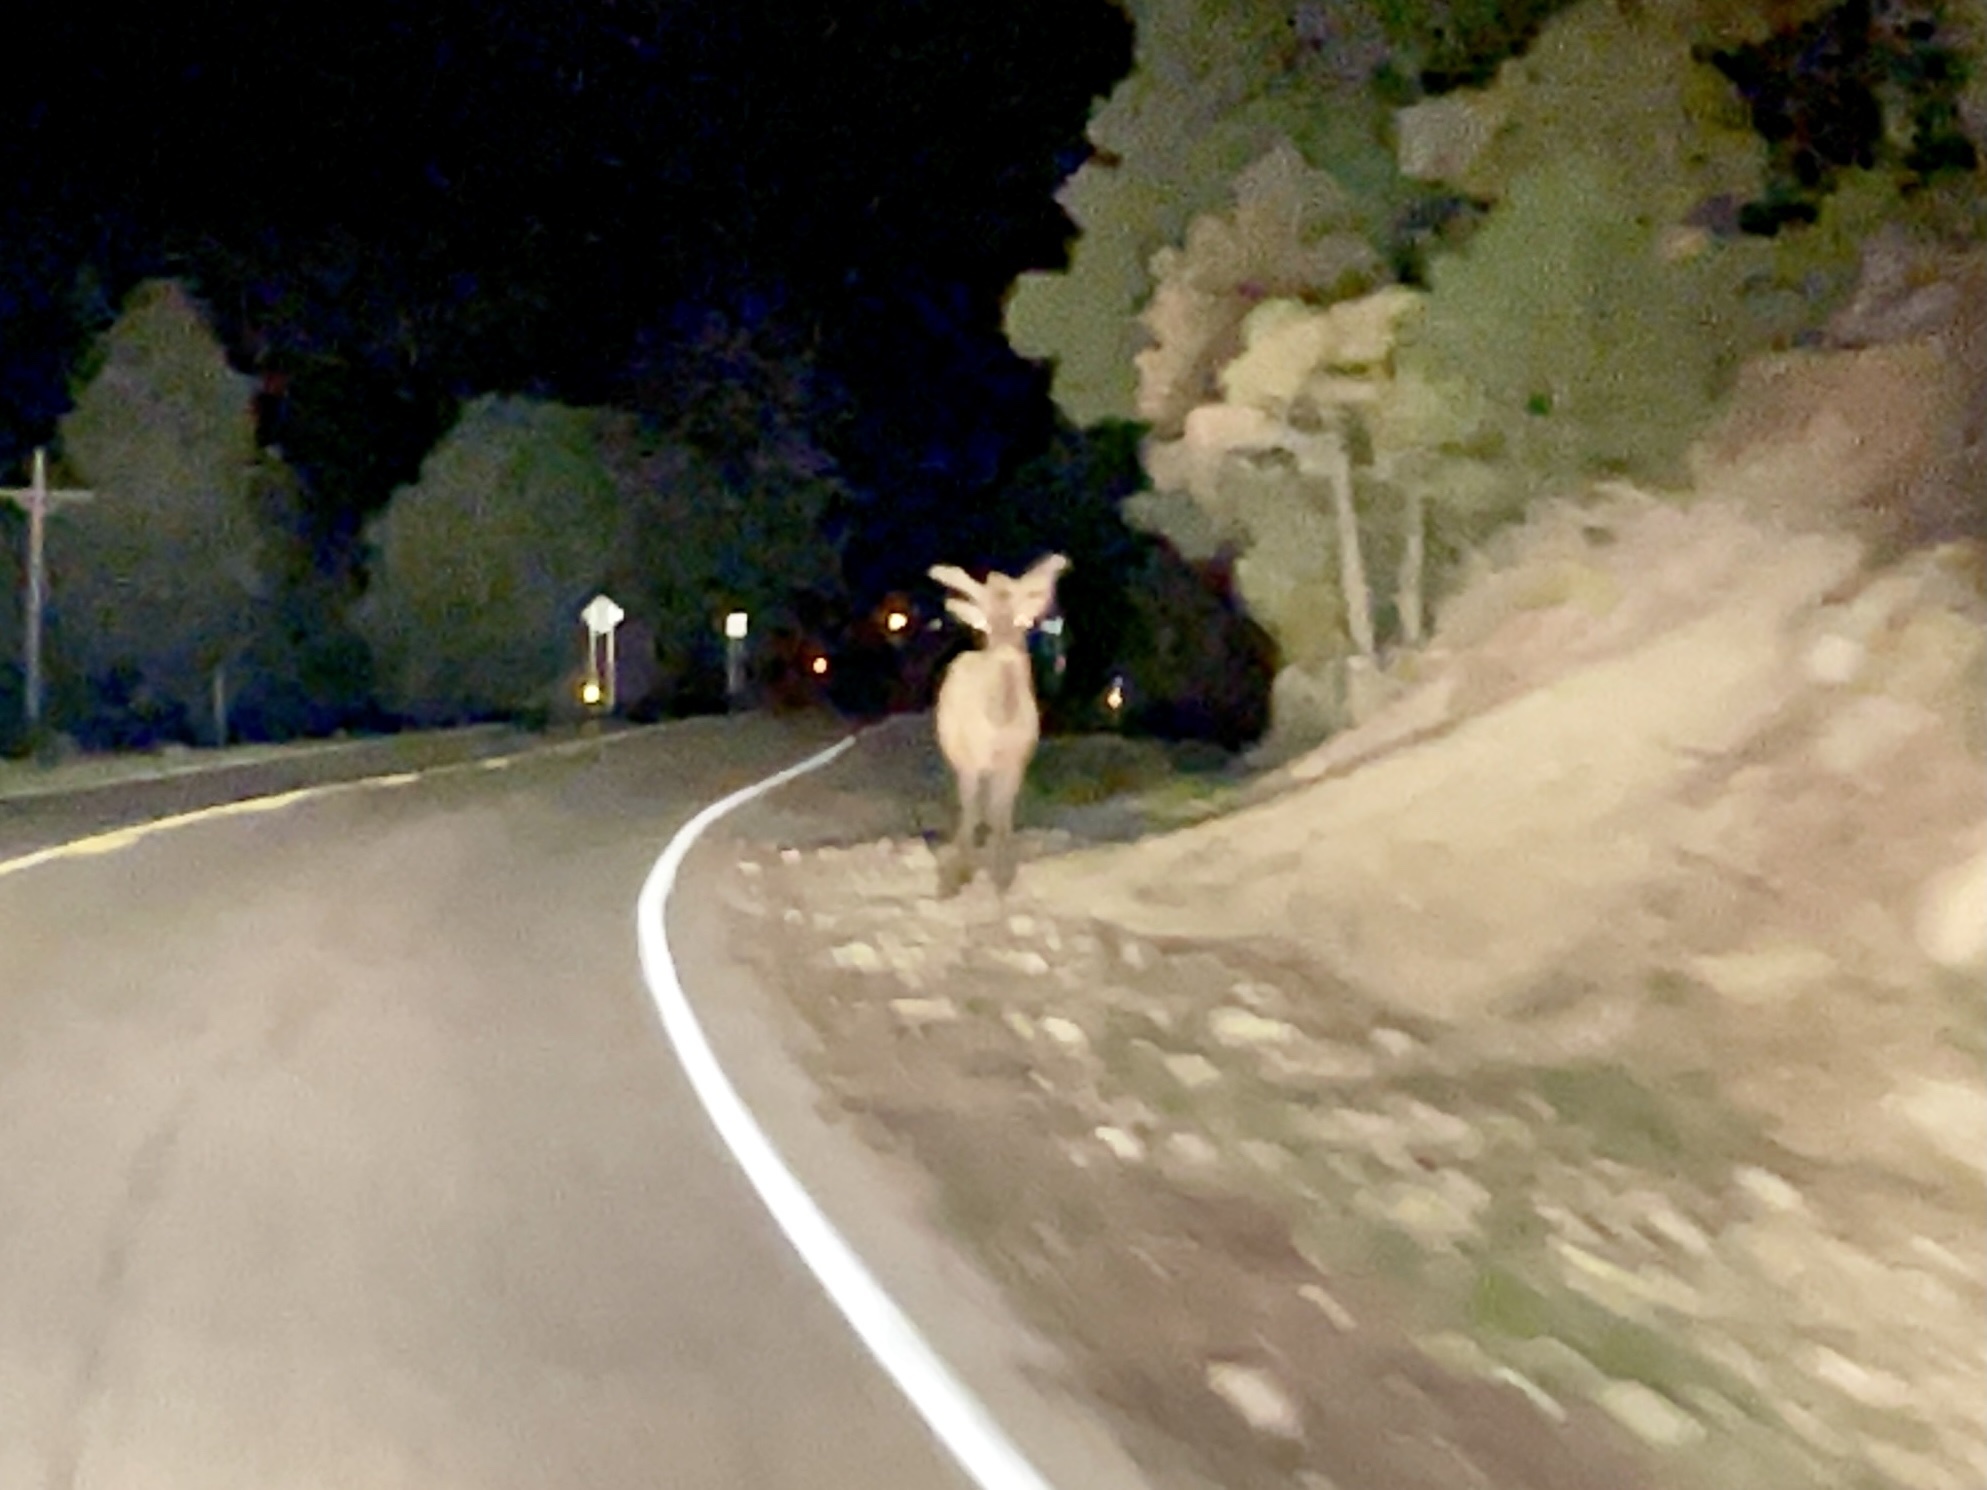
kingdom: Animalia
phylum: Chordata
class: Mammalia
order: Artiodactyla
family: Cervidae
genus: Cervus
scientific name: Cervus elaphus
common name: Red deer
